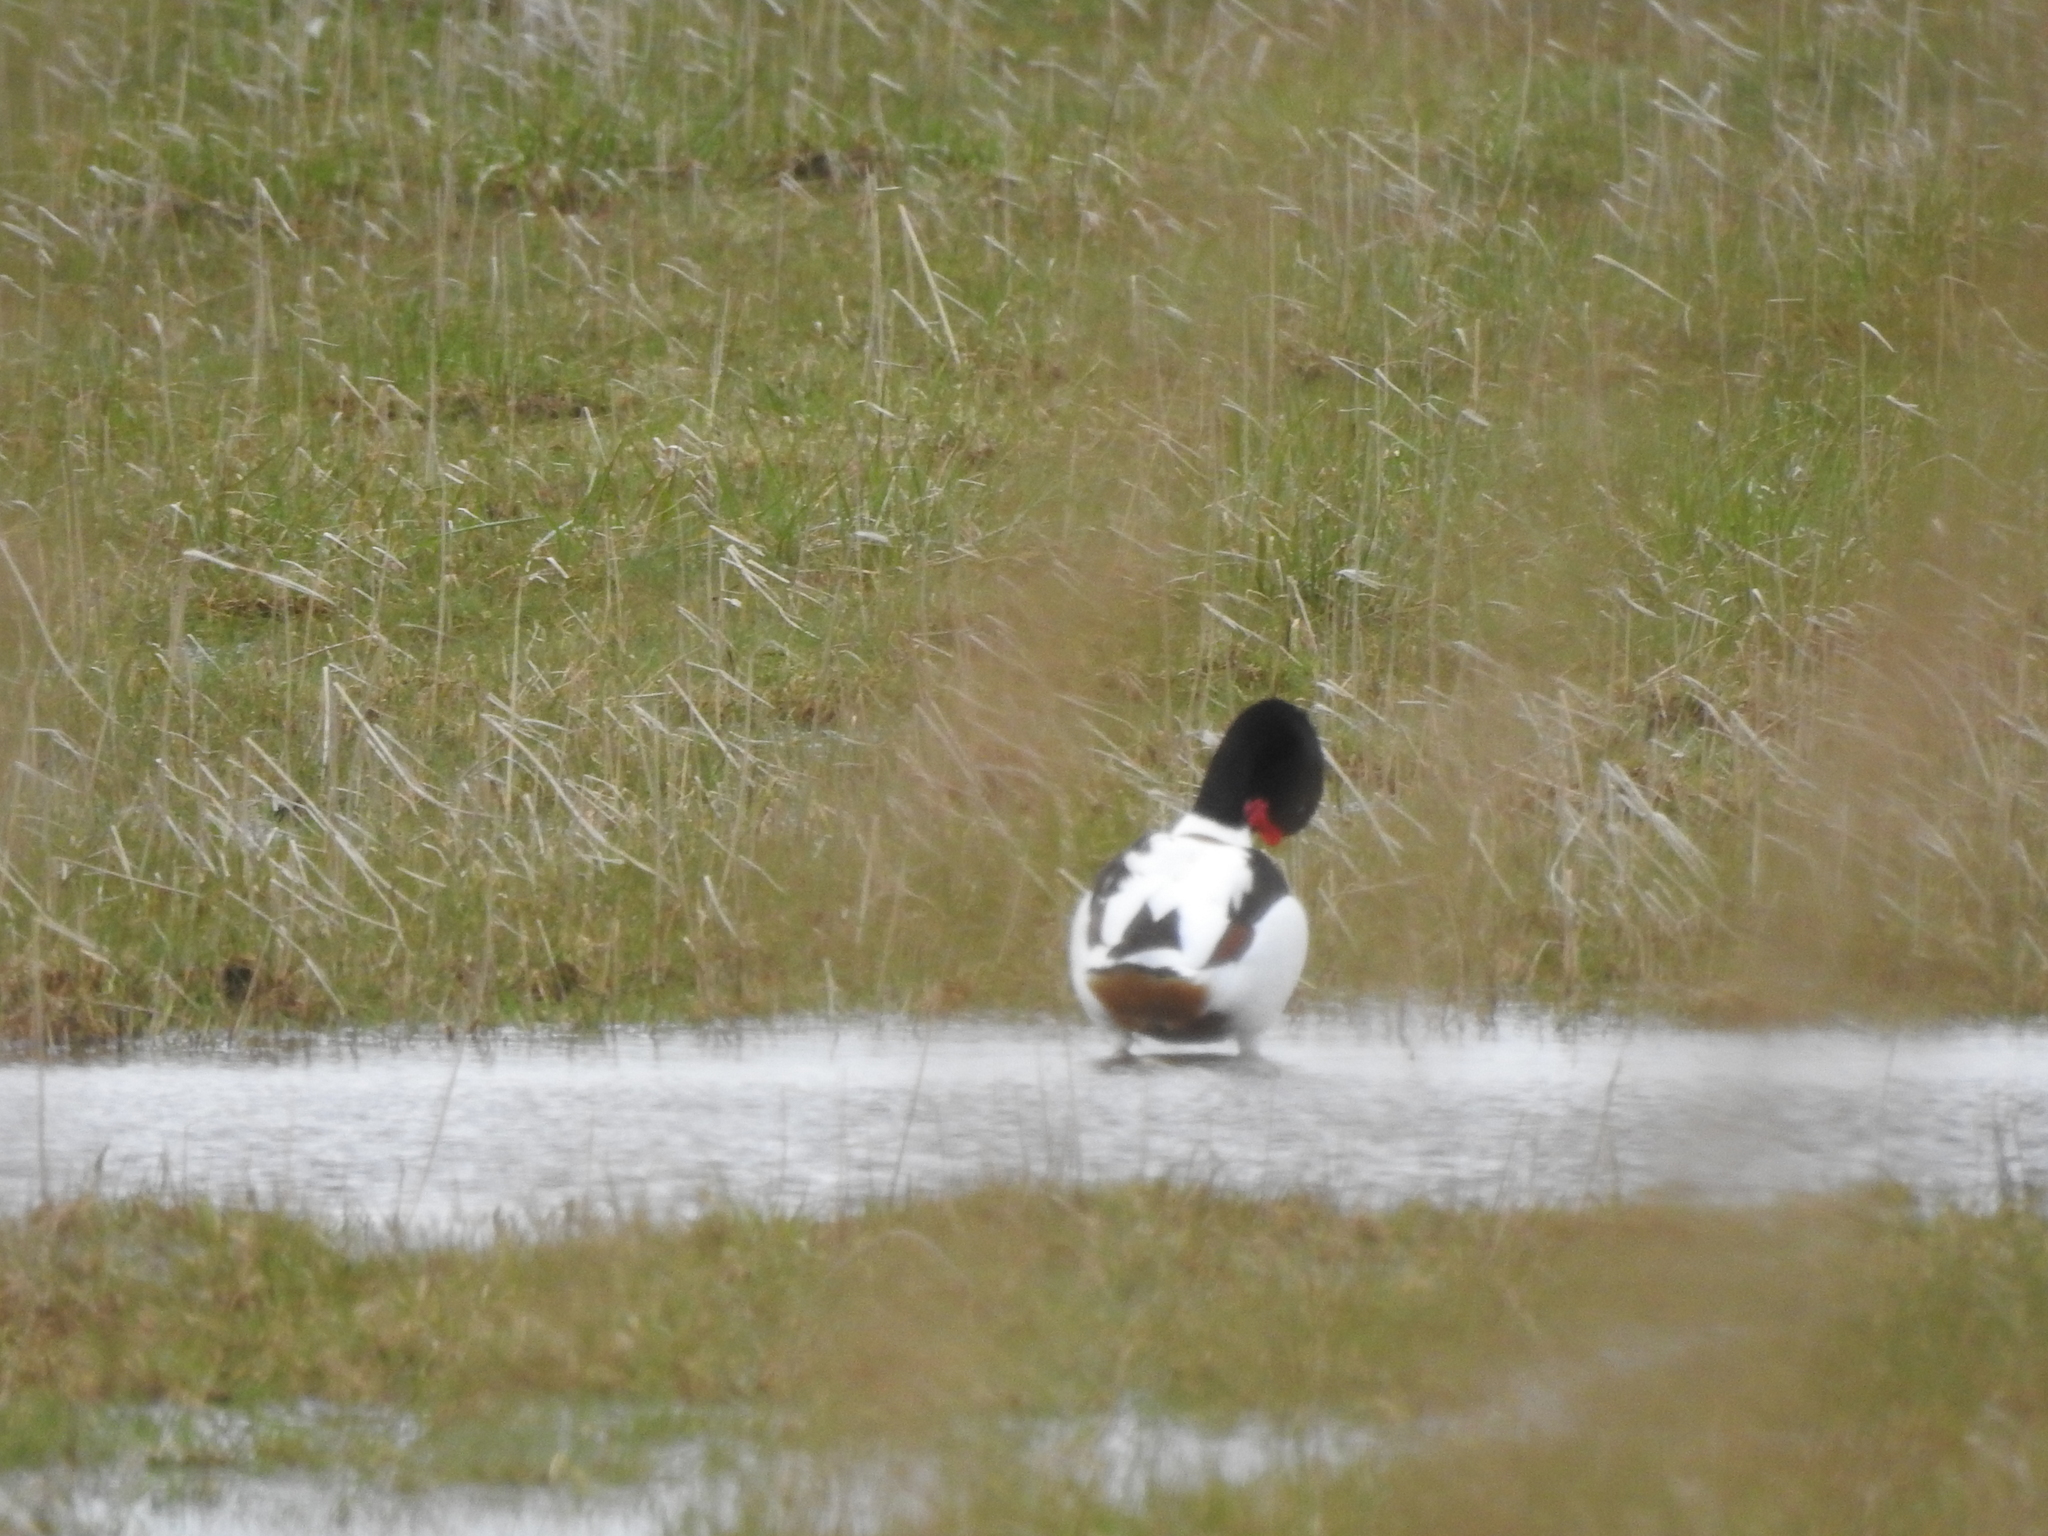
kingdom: Animalia
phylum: Chordata
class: Aves
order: Anseriformes
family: Anatidae
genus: Tadorna
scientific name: Tadorna tadorna
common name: Common shelduck
